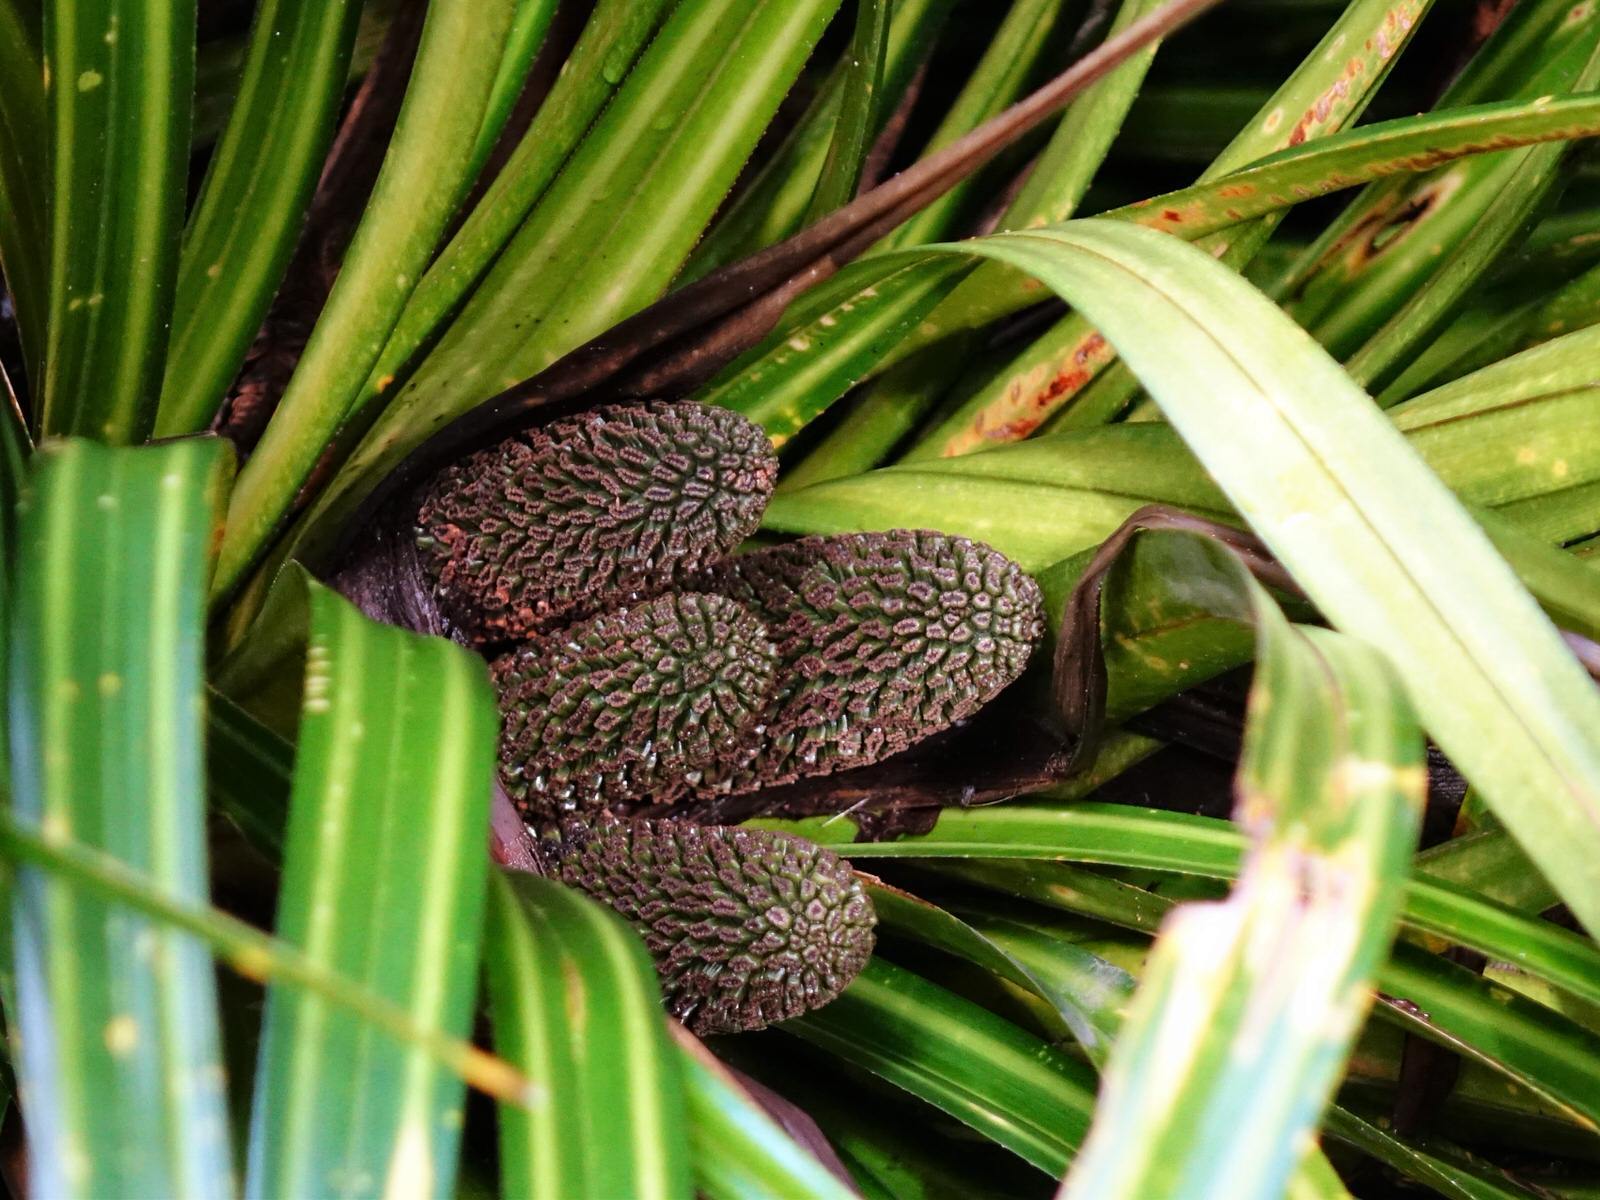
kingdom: Plantae
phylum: Tracheophyta
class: Liliopsida
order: Pandanales
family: Pandanaceae
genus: Freycinetia
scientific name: Freycinetia banksii
